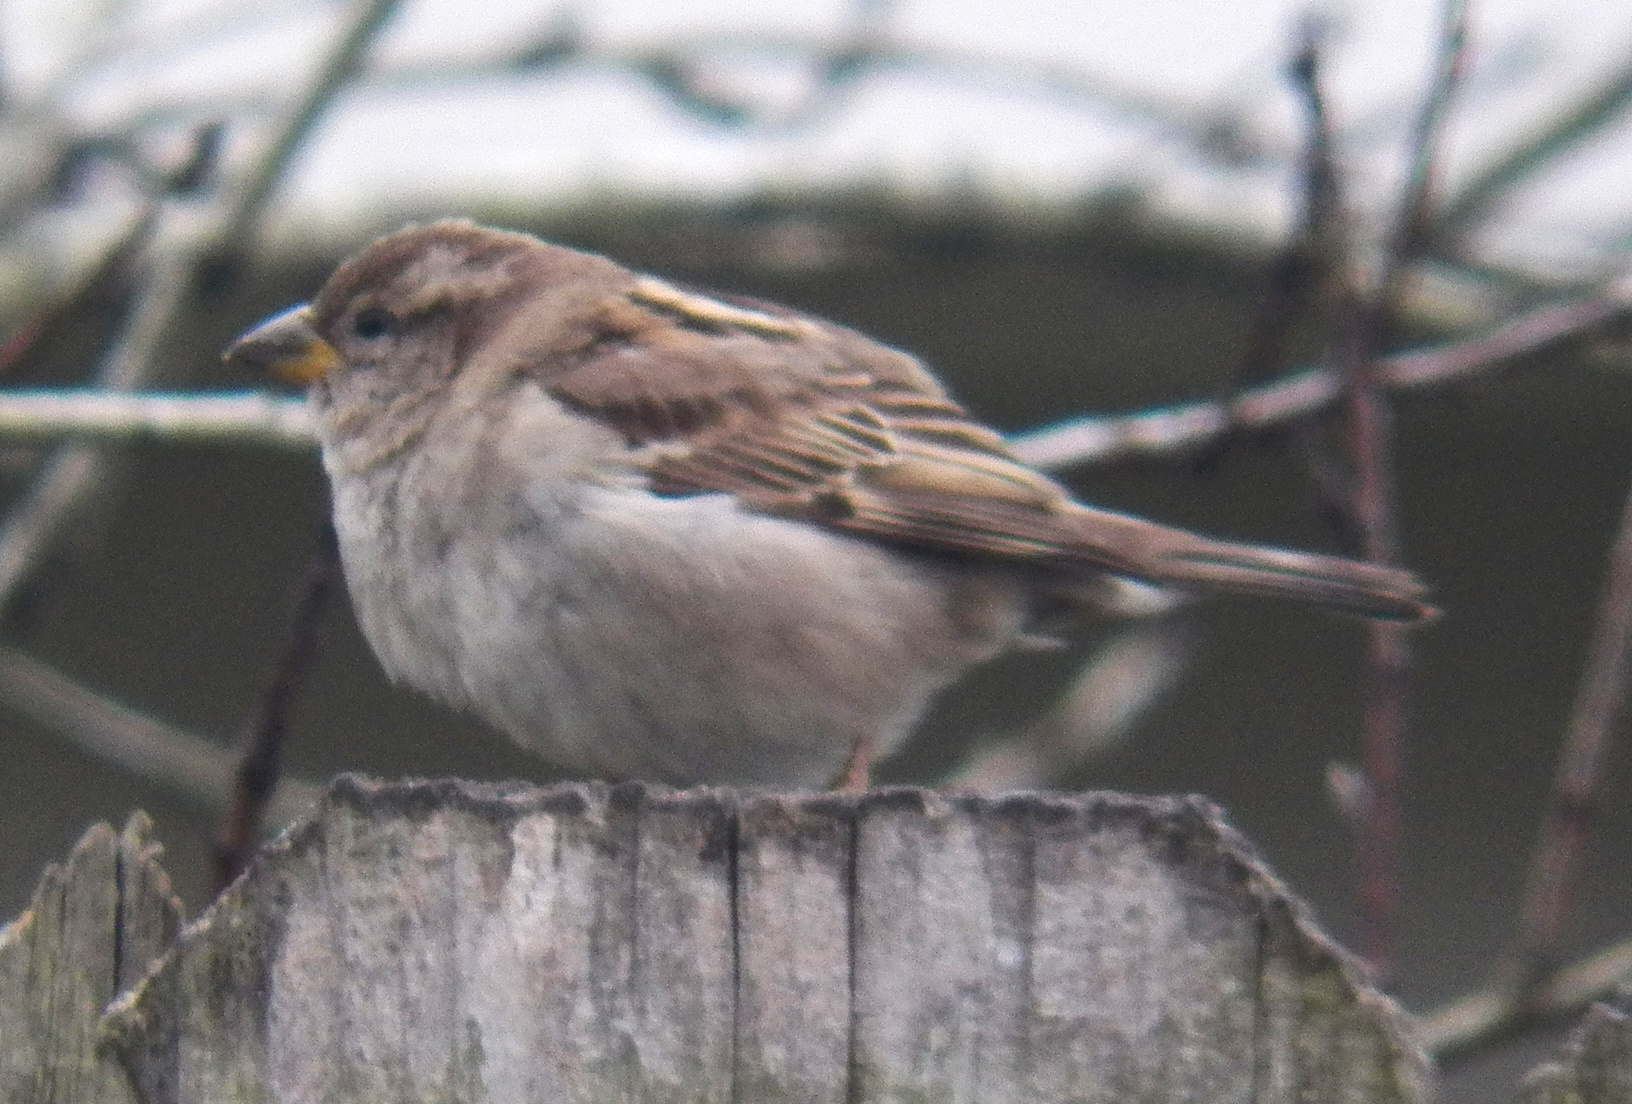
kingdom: Animalia
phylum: Chordata
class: Aves
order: Passeriformes
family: Passeridae
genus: Passer
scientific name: Passer domesticus
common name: House sparrow
